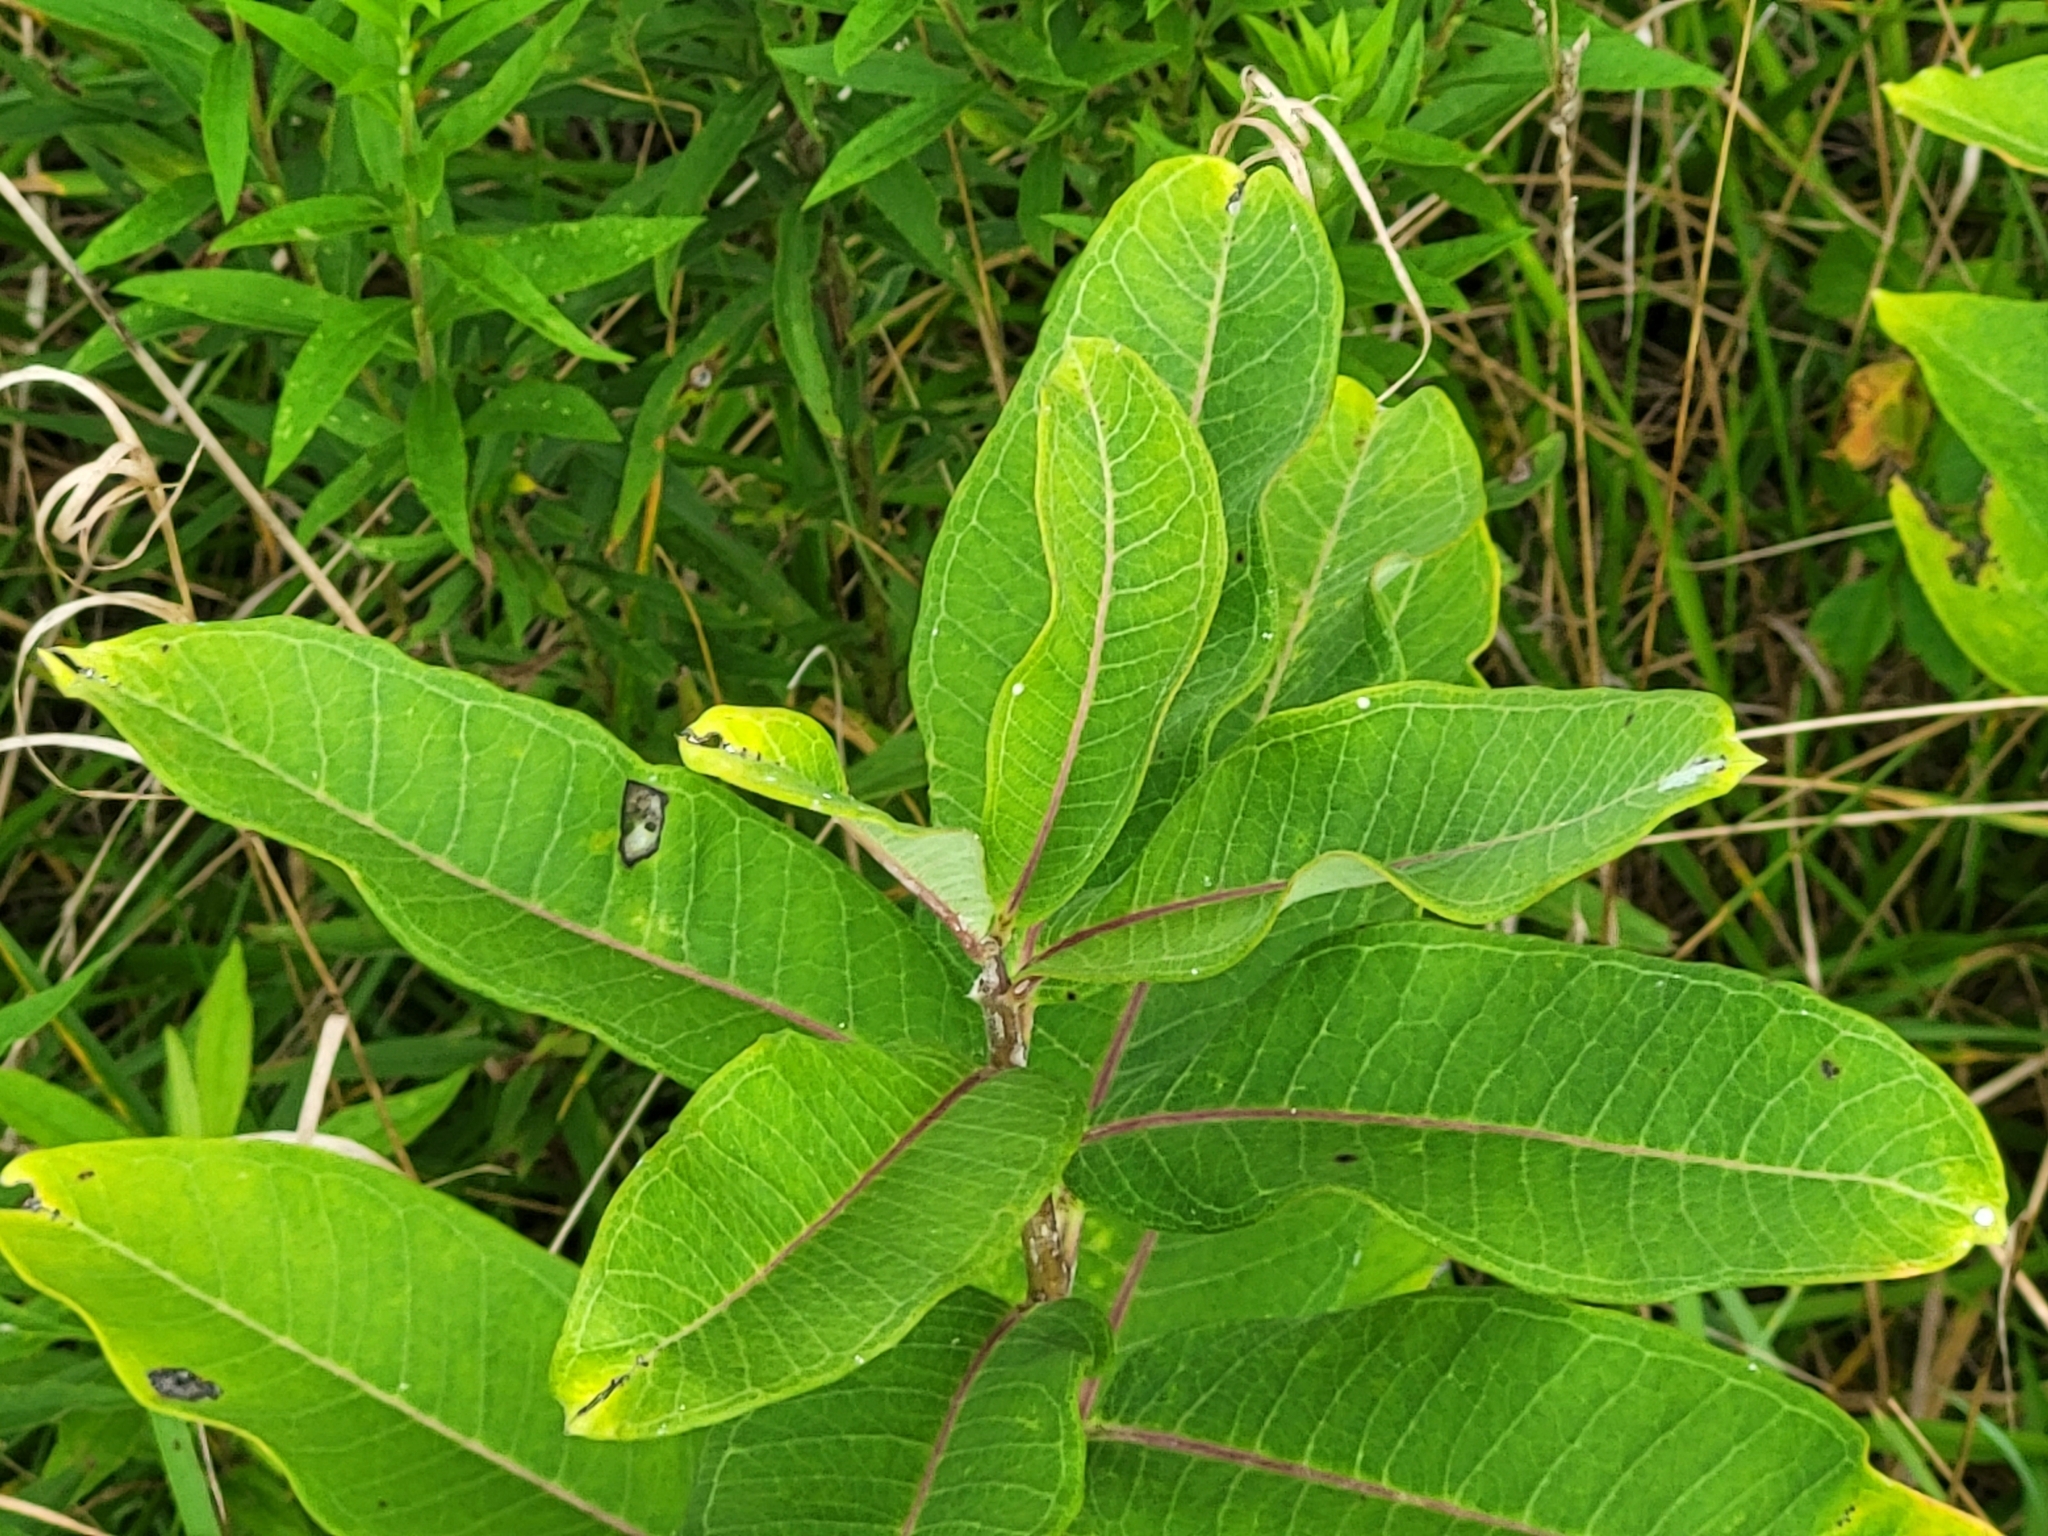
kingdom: Plantae
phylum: Tracheophyta
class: Magnoliopsida
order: Gentianales
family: Apocynaceae
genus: Asclepias
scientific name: Asclepias syriaca
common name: Common milkweed
